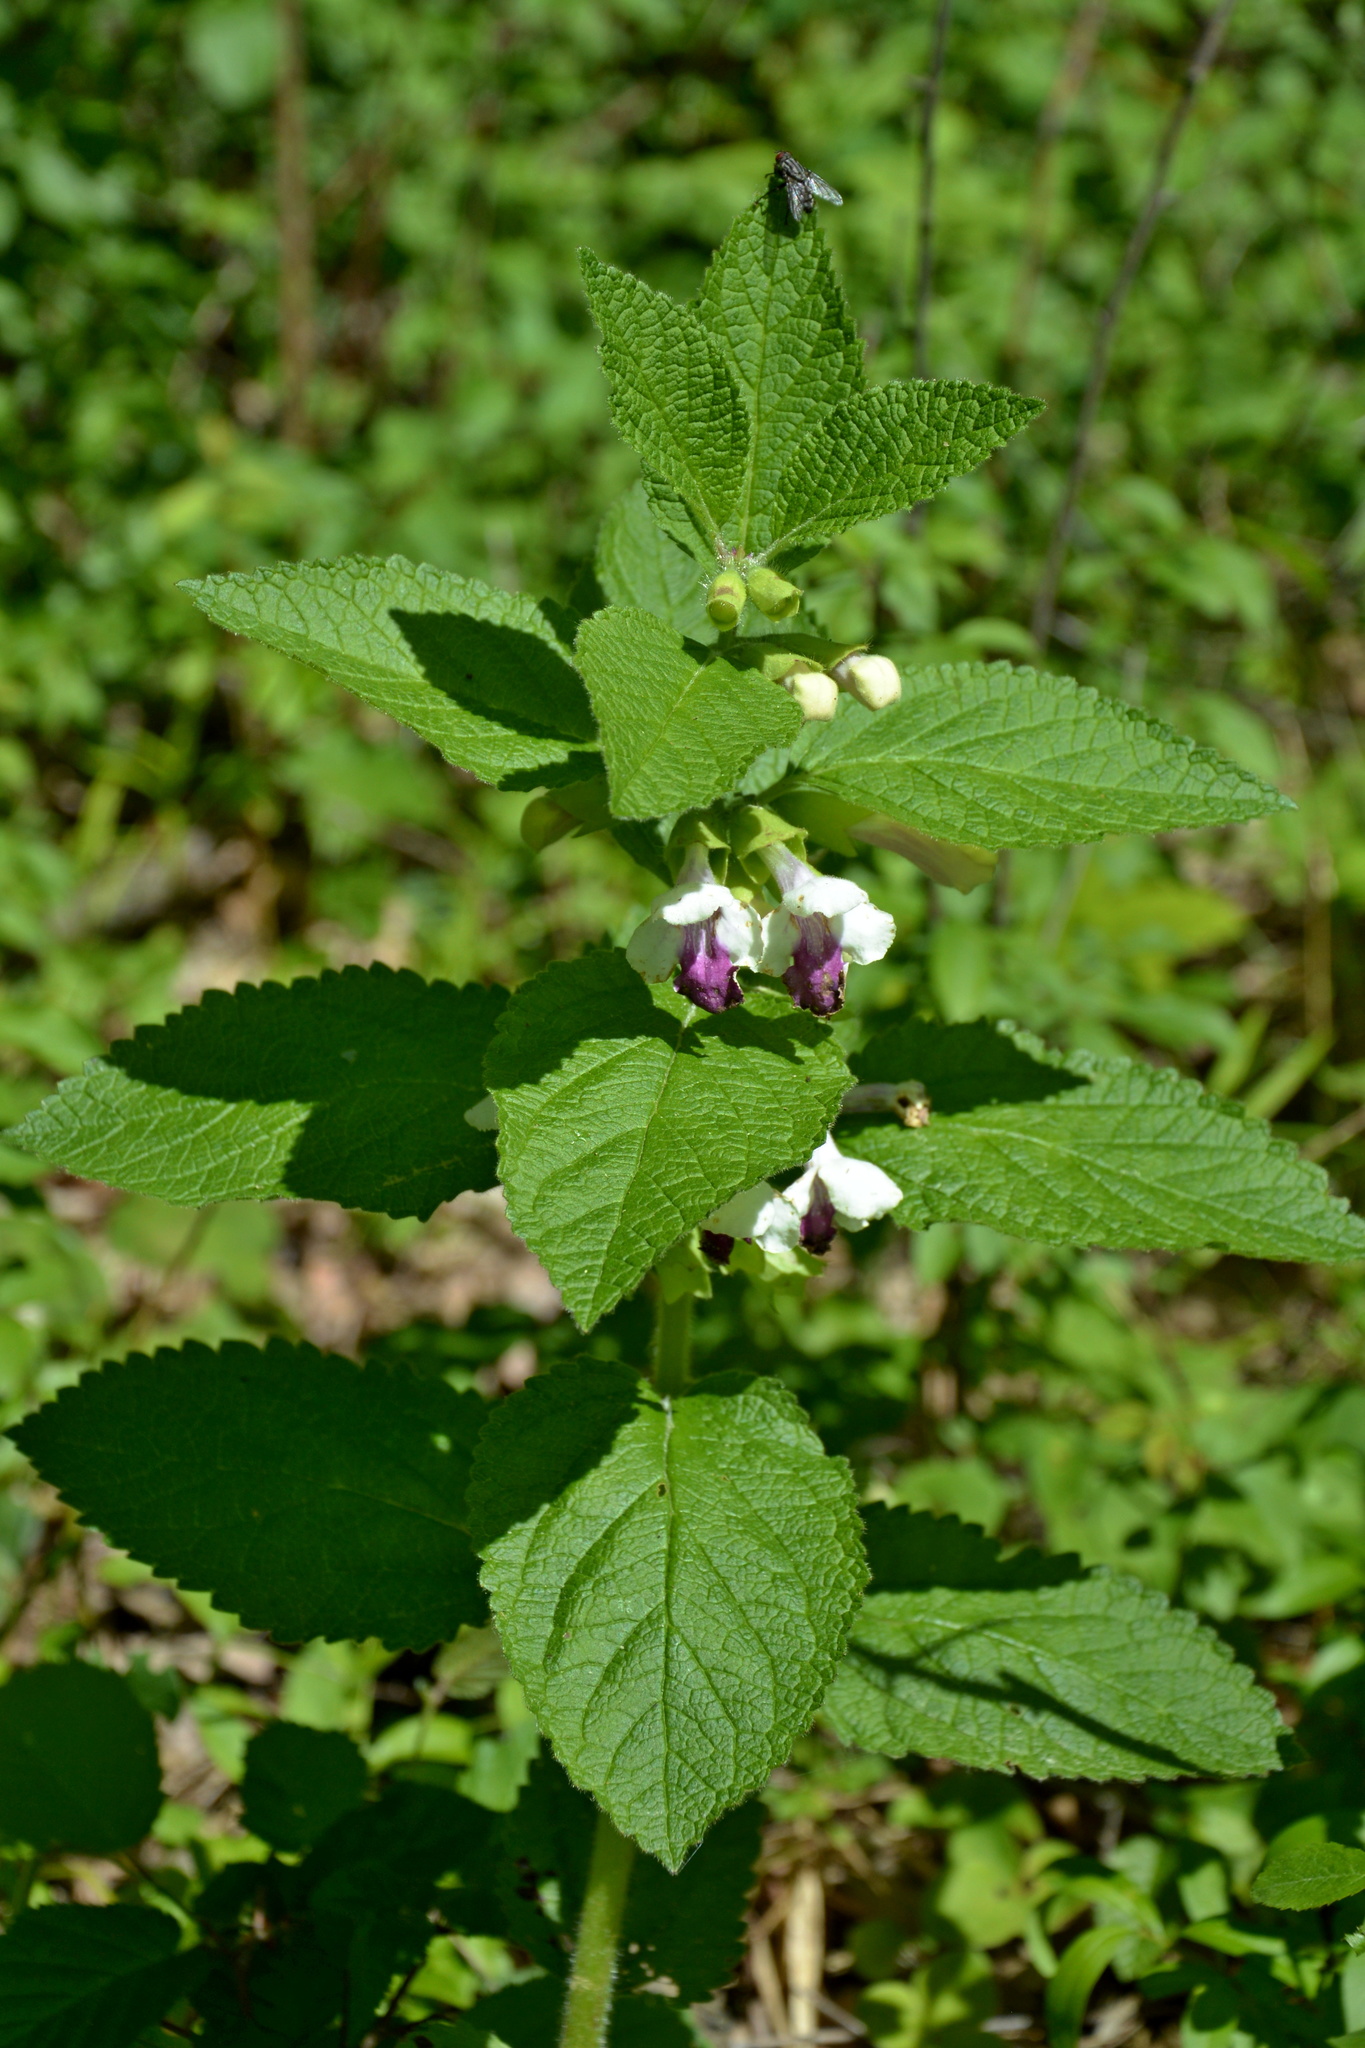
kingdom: Plantae
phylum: Tracheophyta
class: Magnoliopsida
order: Lamiales
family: Lamiaceae
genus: Melittis
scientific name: Melittis melissophyllum
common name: Bastard balm
